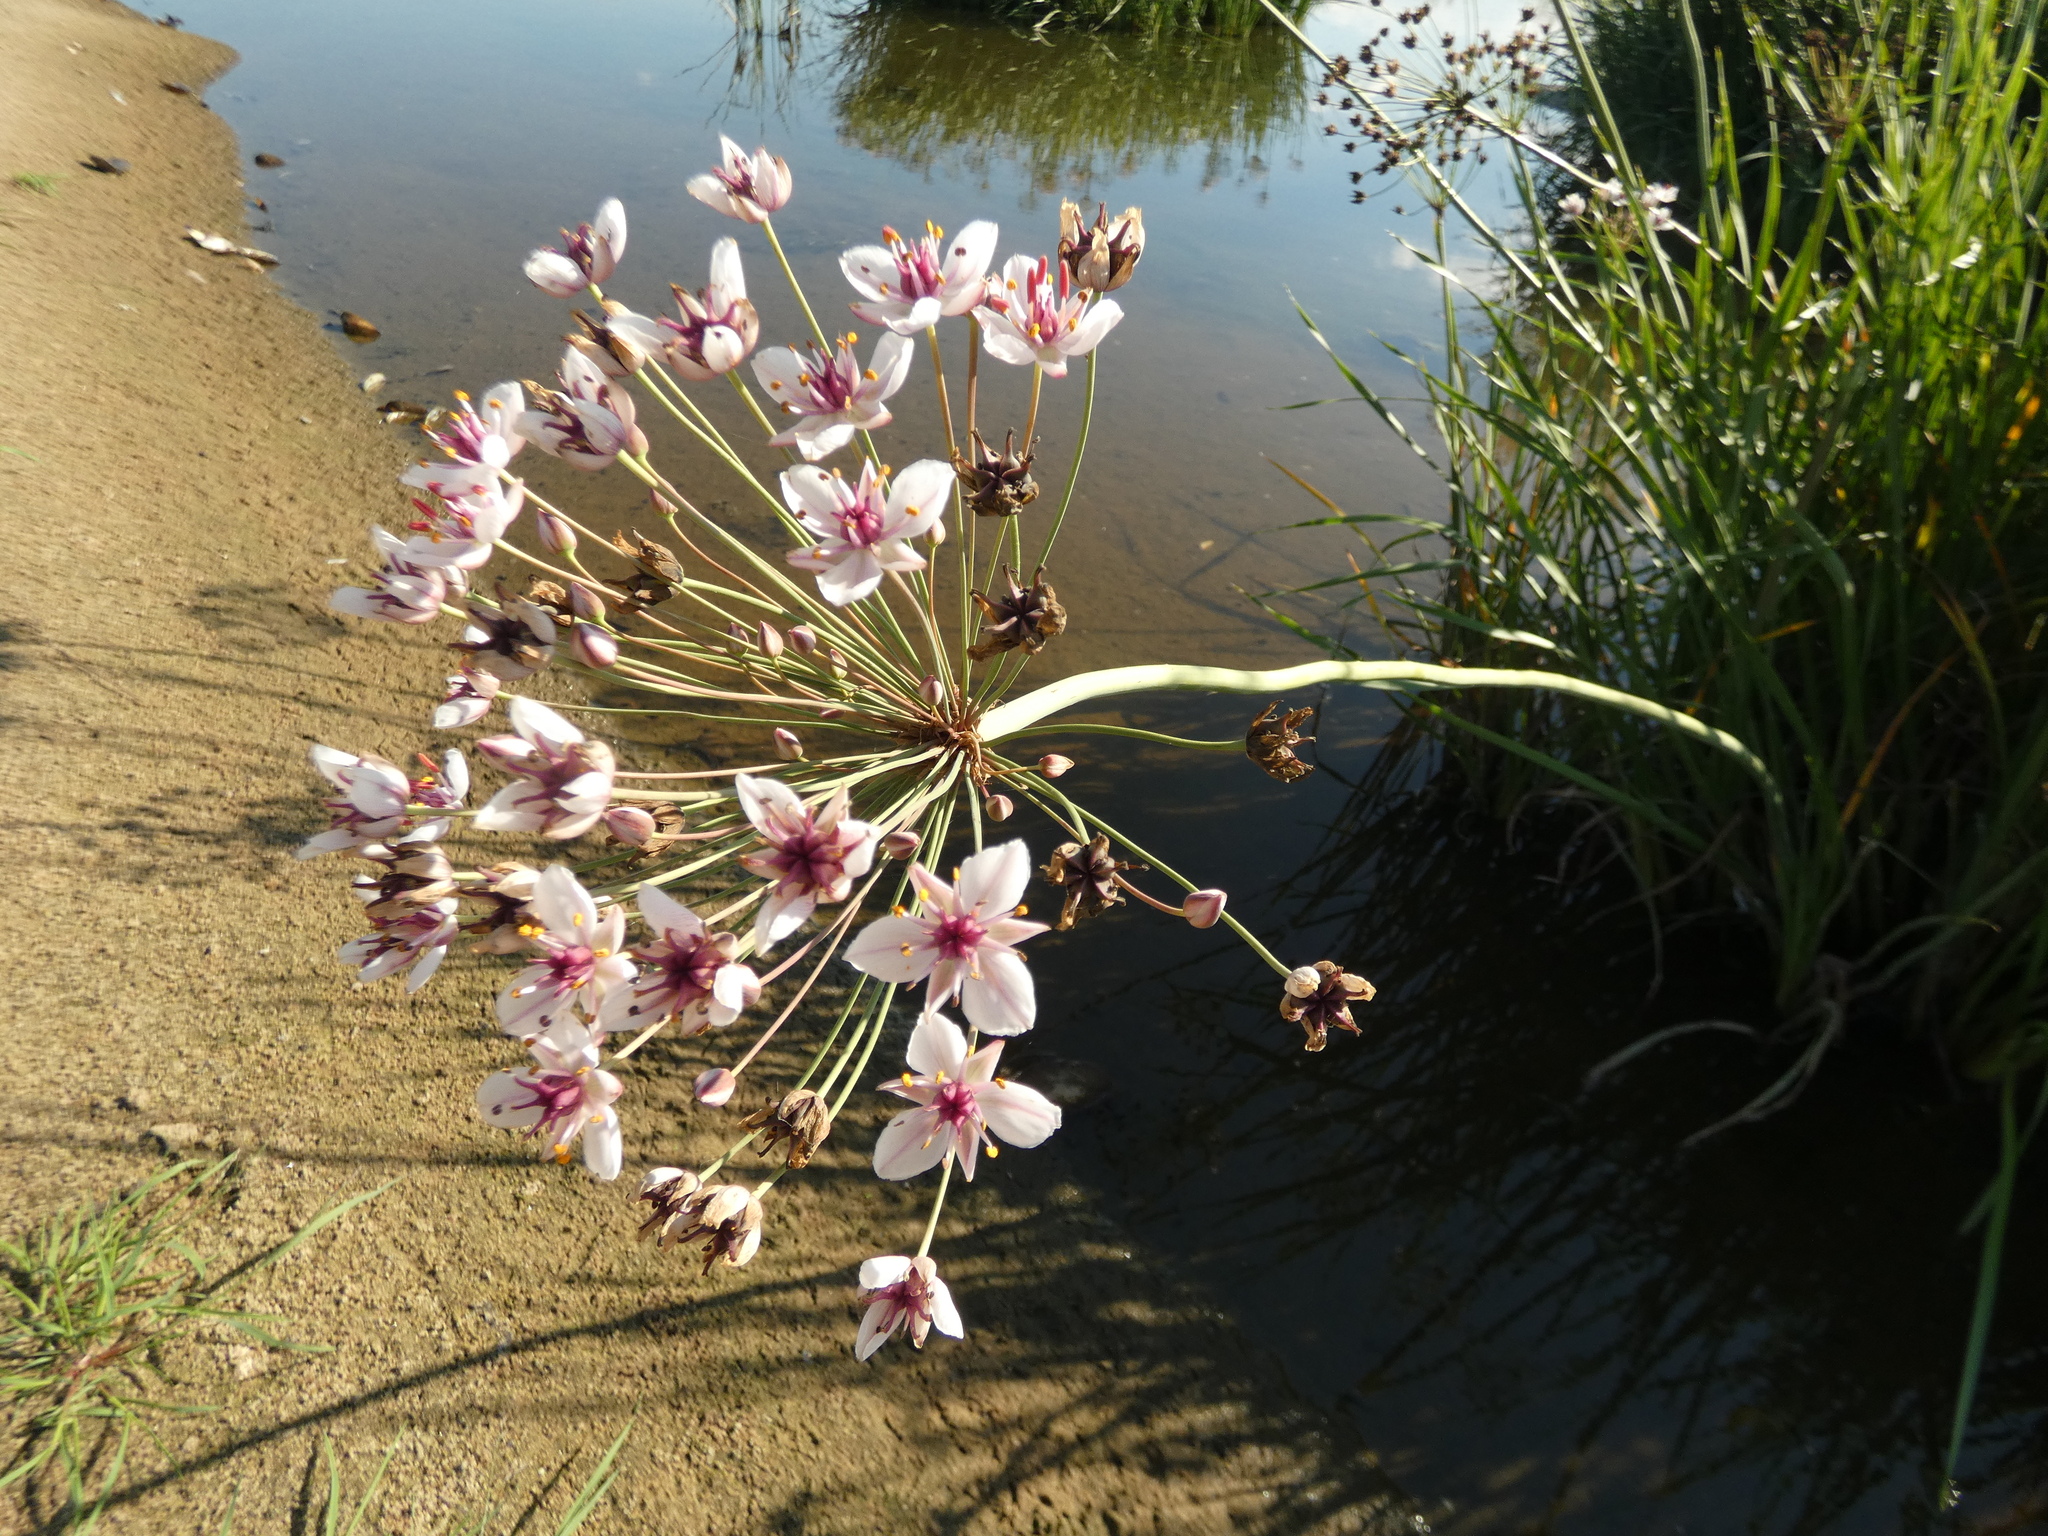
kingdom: Plantae
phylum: Tracheophyta
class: Liliopsida
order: Alismatales
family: Butomaceae
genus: Butomus
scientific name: Butomus umbellatus
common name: Flowering-rush
